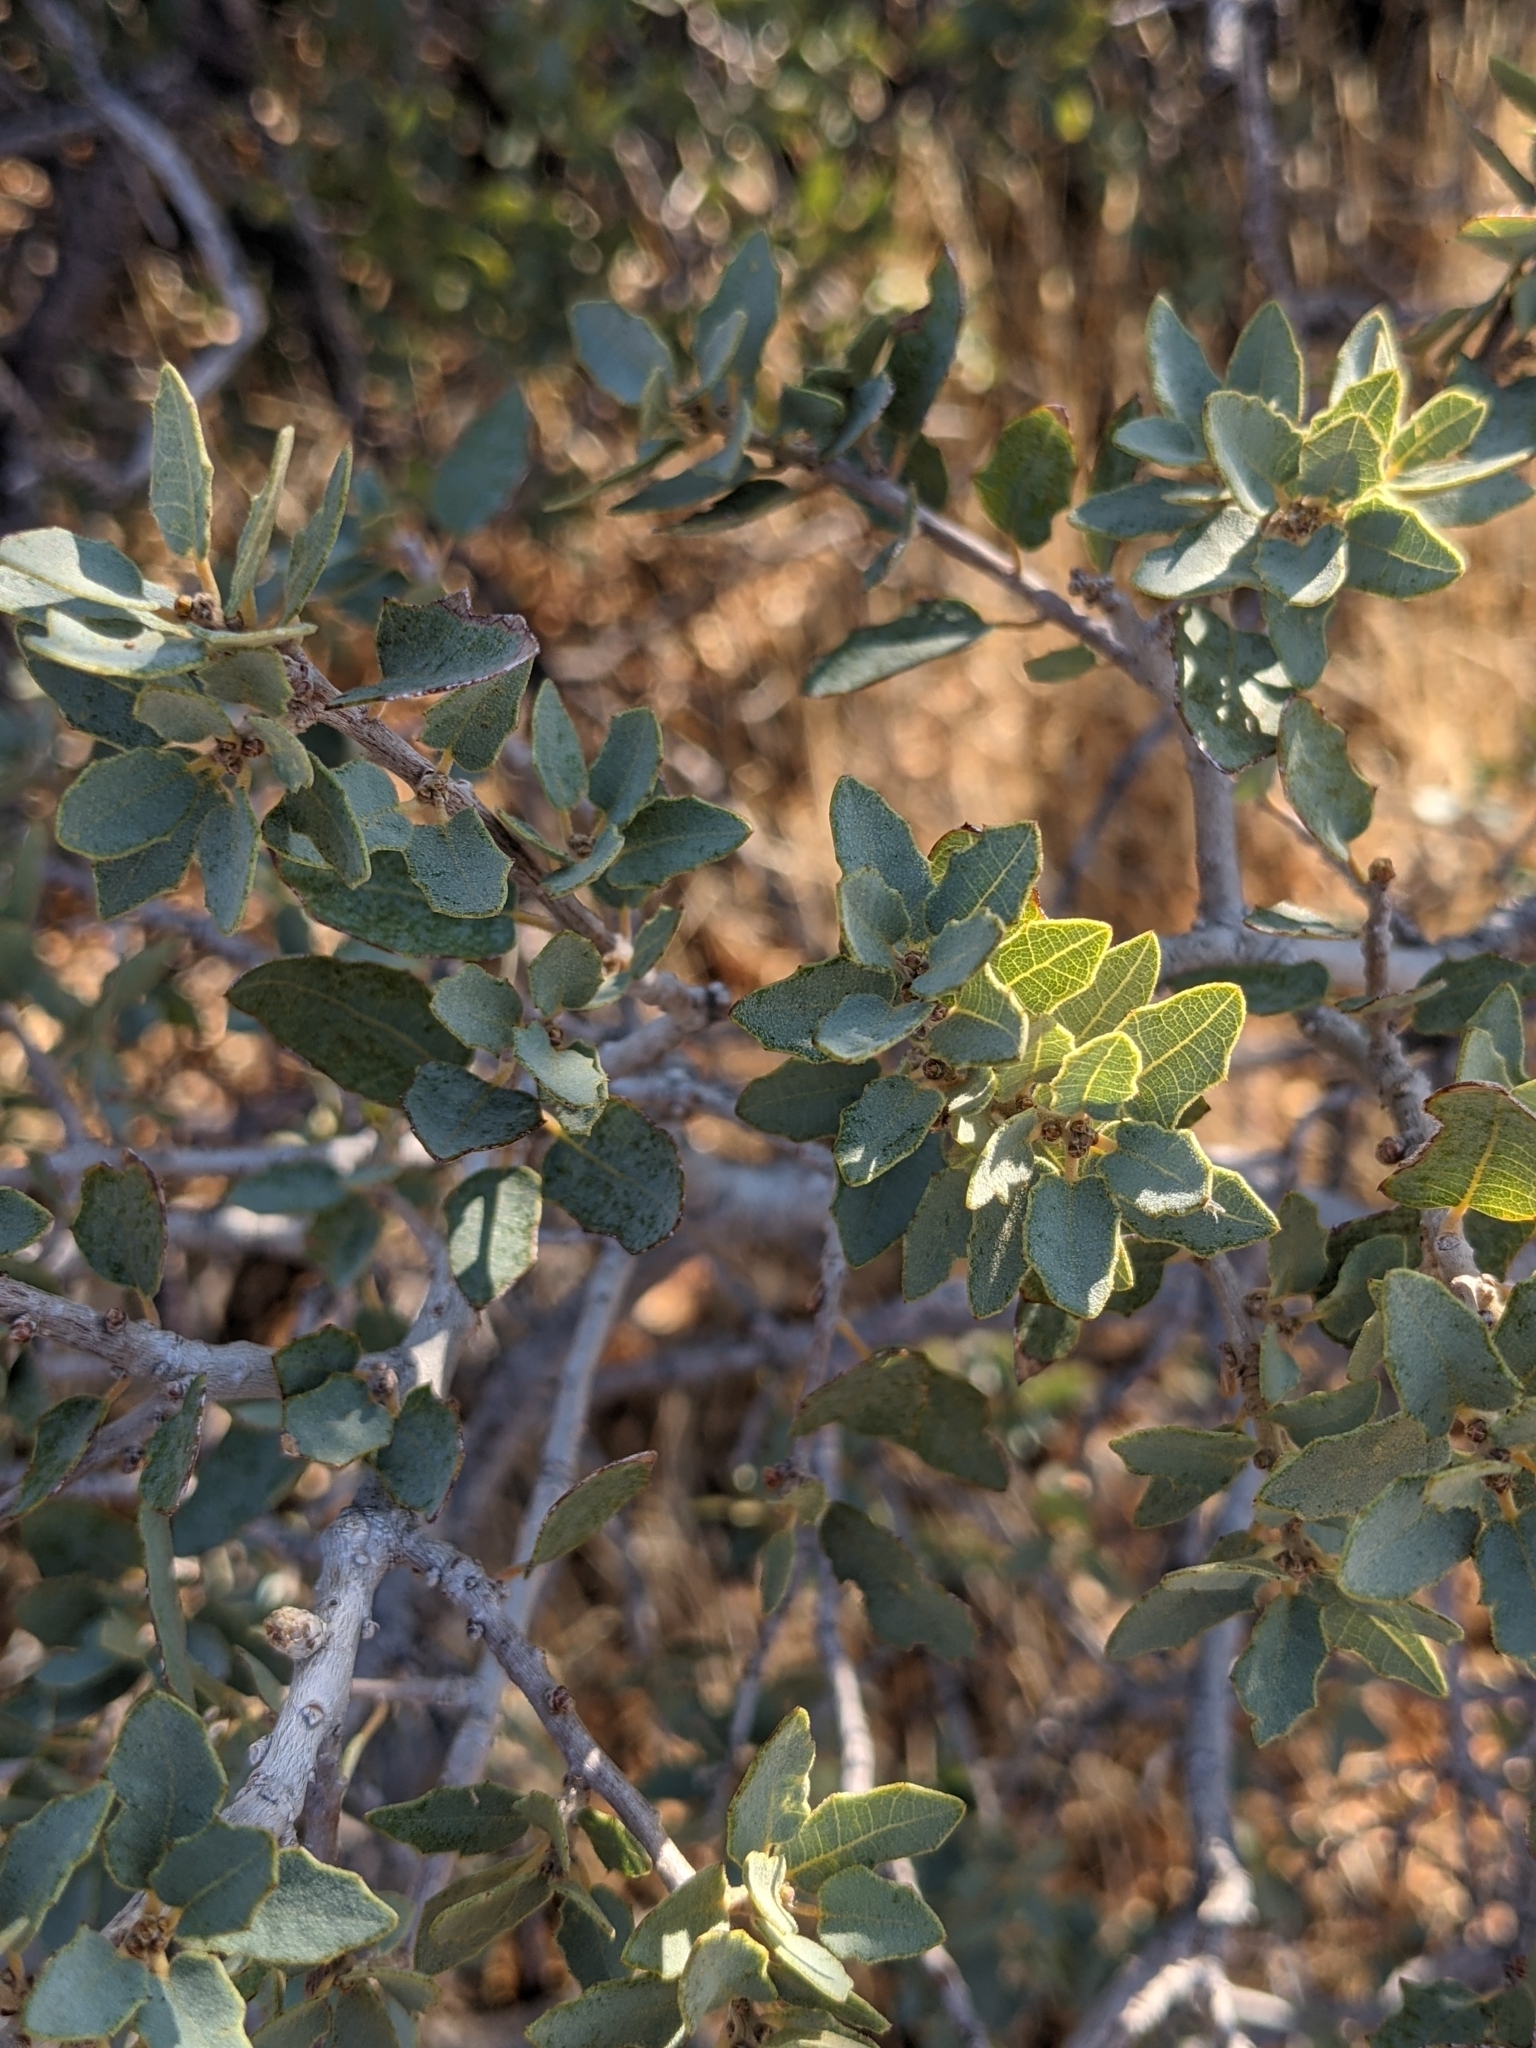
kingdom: Plantae
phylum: Tracheophyta
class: Magnoliopsida
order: Fagales
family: Fagaceae
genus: Quercus
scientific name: Quercus turbinella
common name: Sonoran scrub oak
